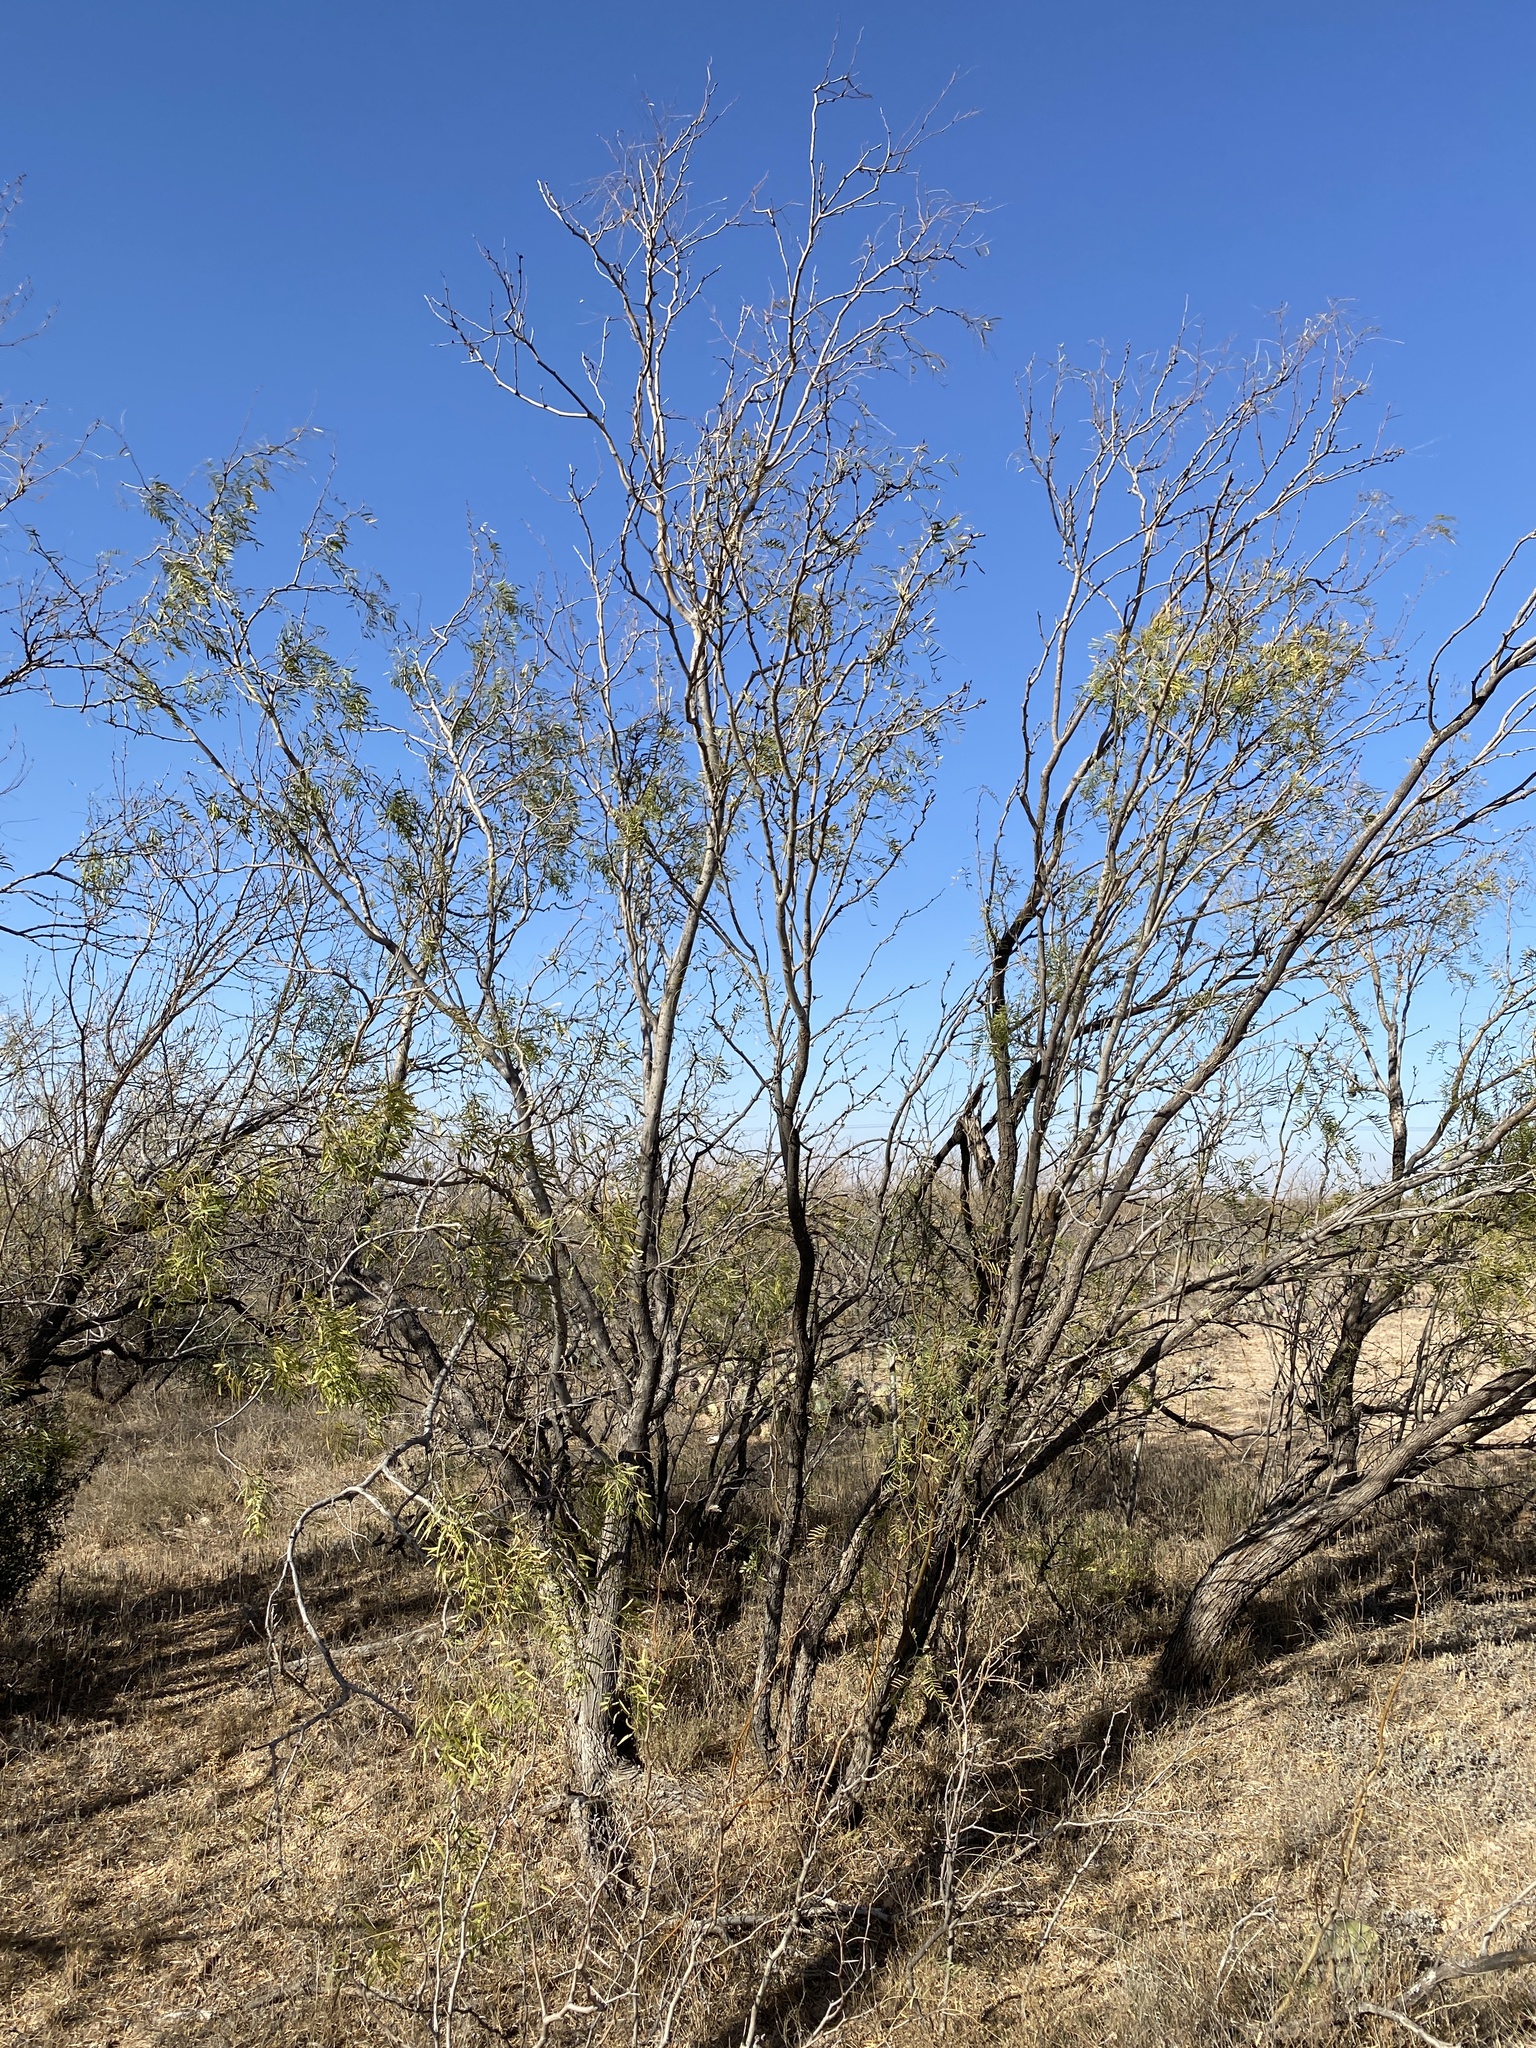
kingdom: Plantae
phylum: Tracheophyta
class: Magnoliopsida
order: Fabales
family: Fabaceae
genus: Prosopis
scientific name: Prosopis glandulosa
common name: Honey mesquite
